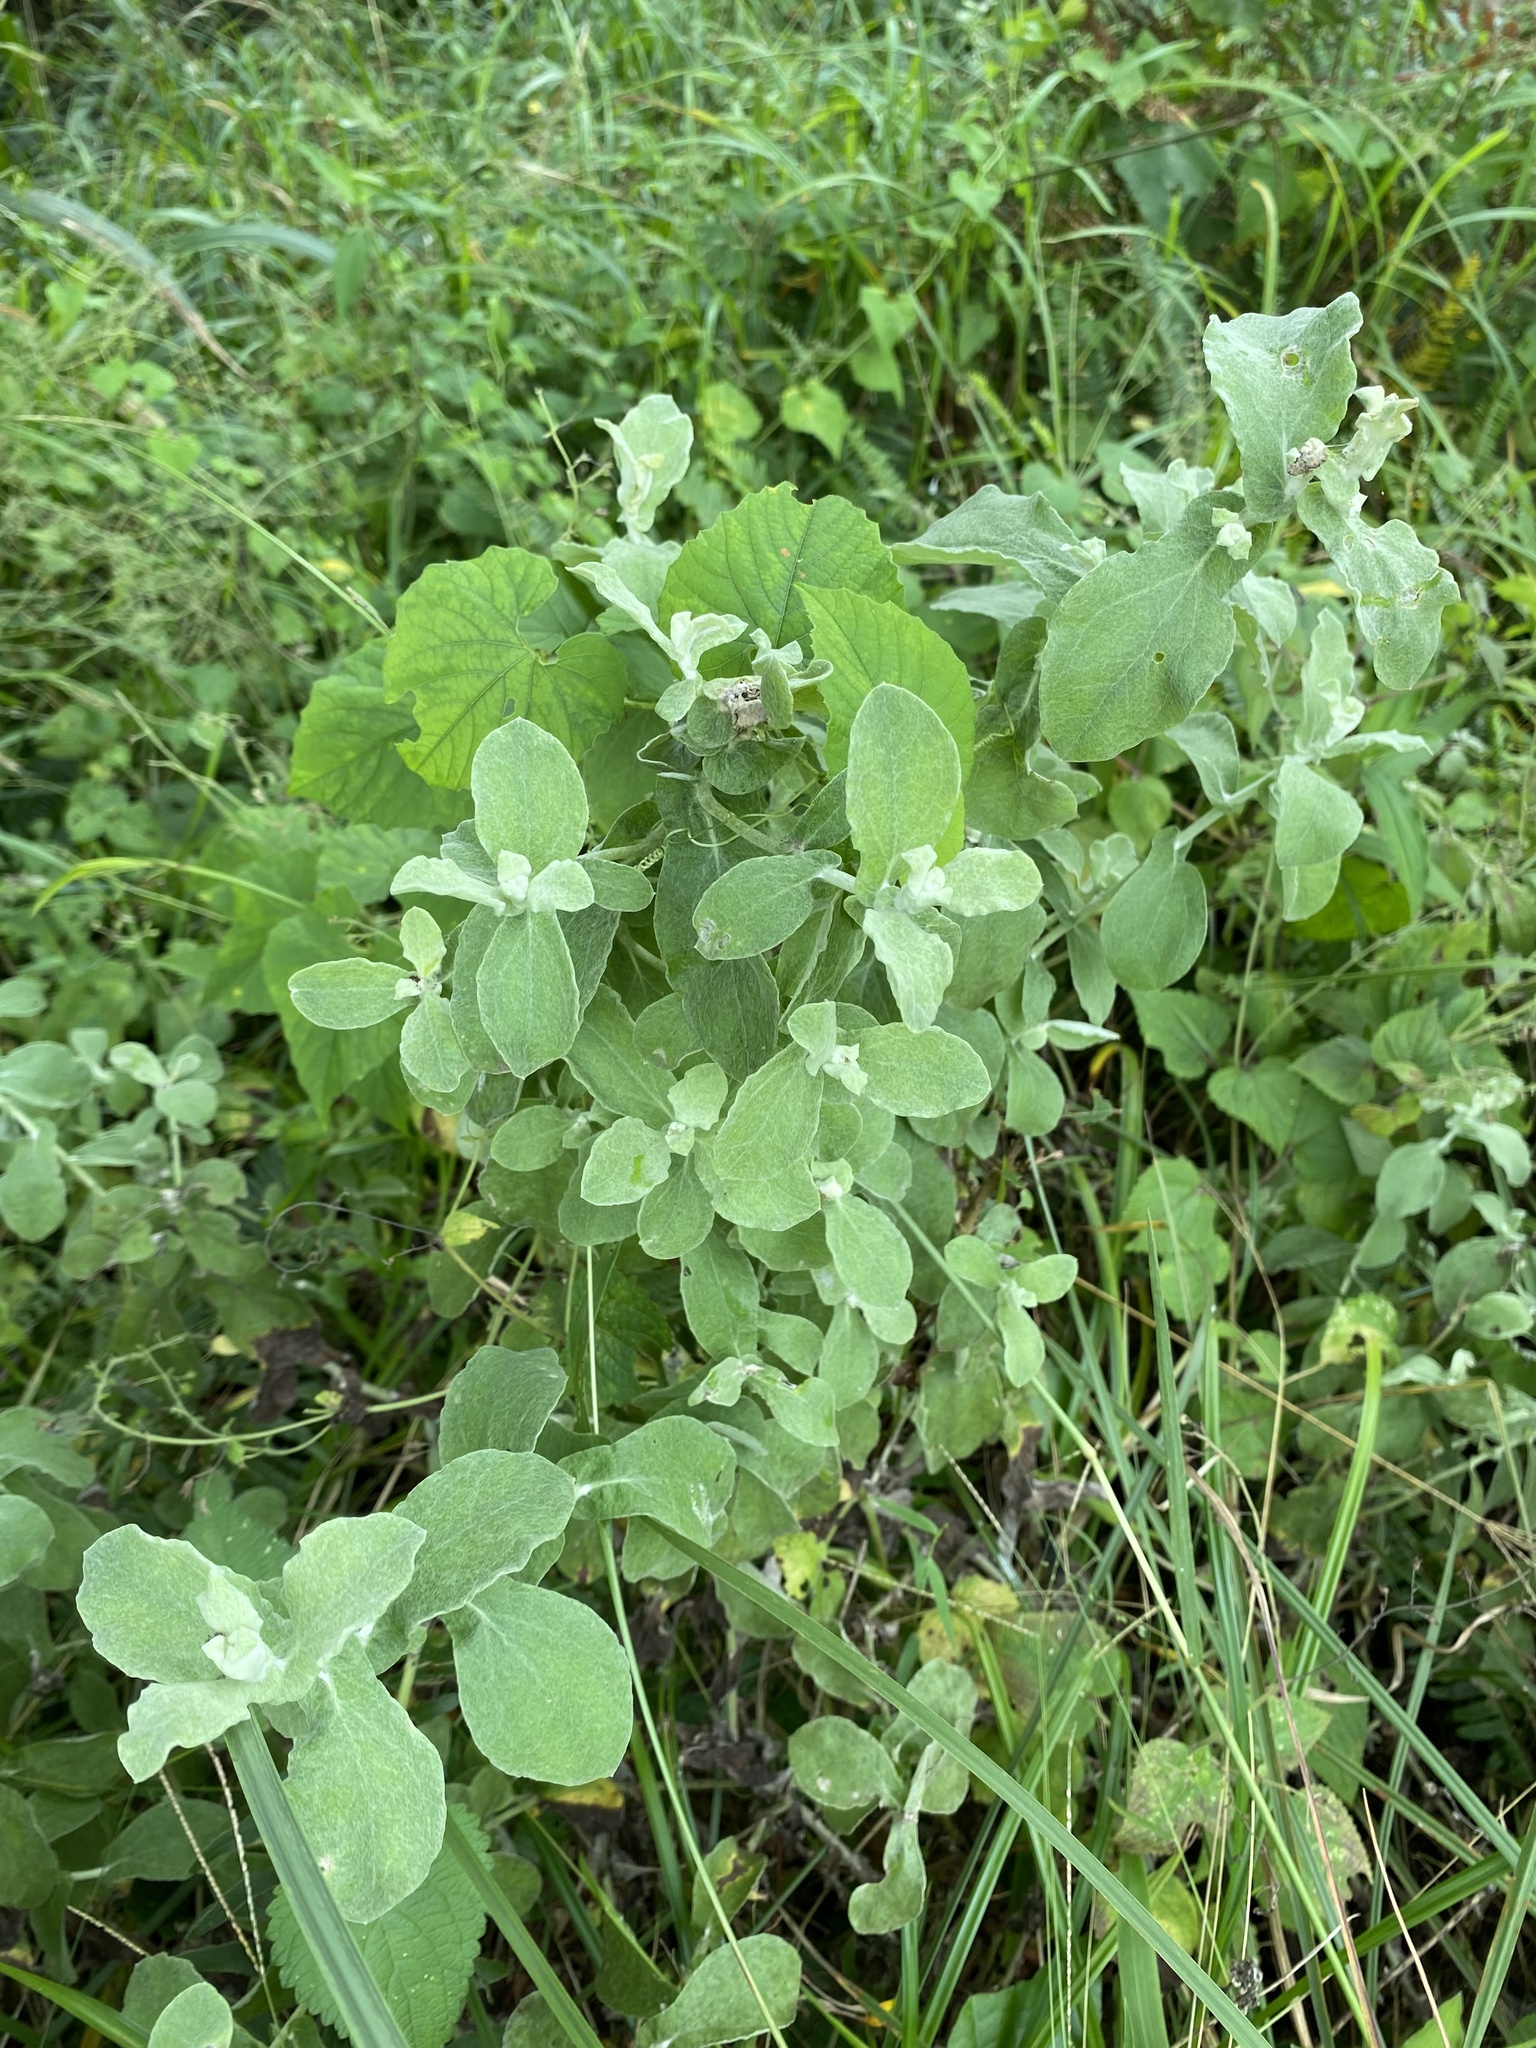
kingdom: Plantae
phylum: Tracheophyta
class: Magnoliopsida
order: Asterales
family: Asteraceae
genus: Helichrysum
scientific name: Helichrysum panduratum
